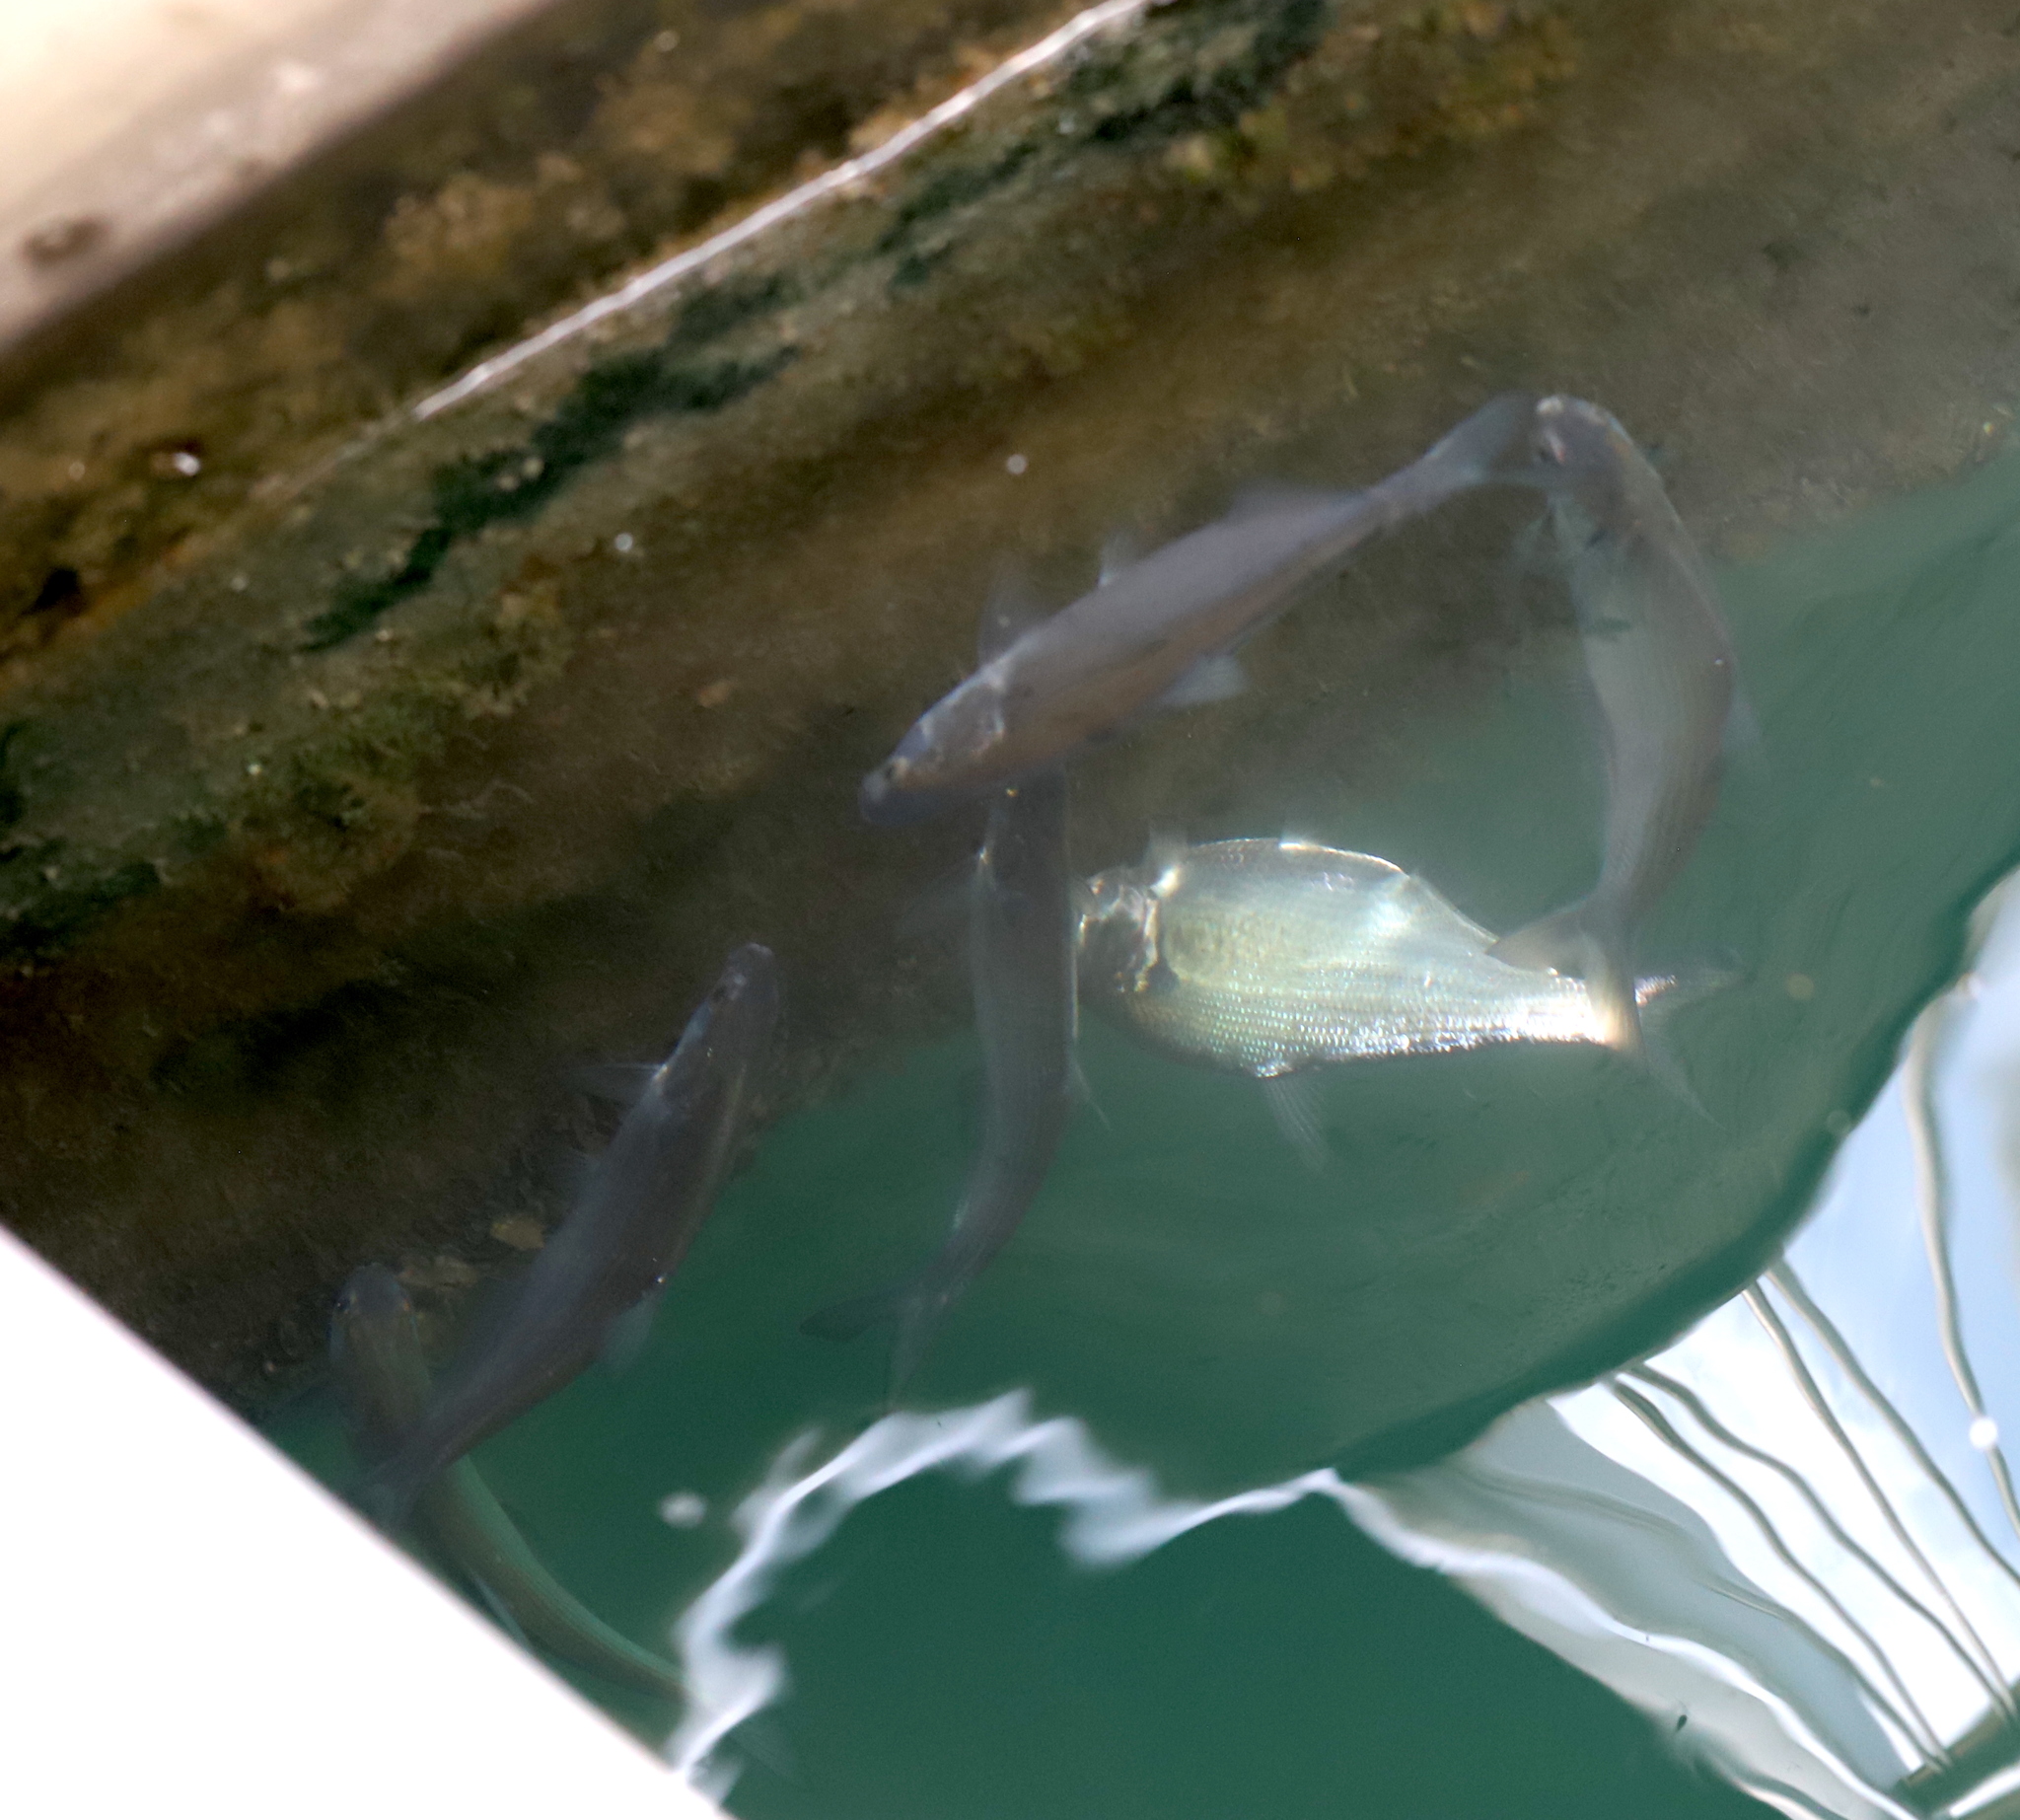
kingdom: Animalia
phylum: Chordata
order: Clupeiformes
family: Clupeidae
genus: Dorosoma
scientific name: Dorosoma cepedianum
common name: Gizzard shad
